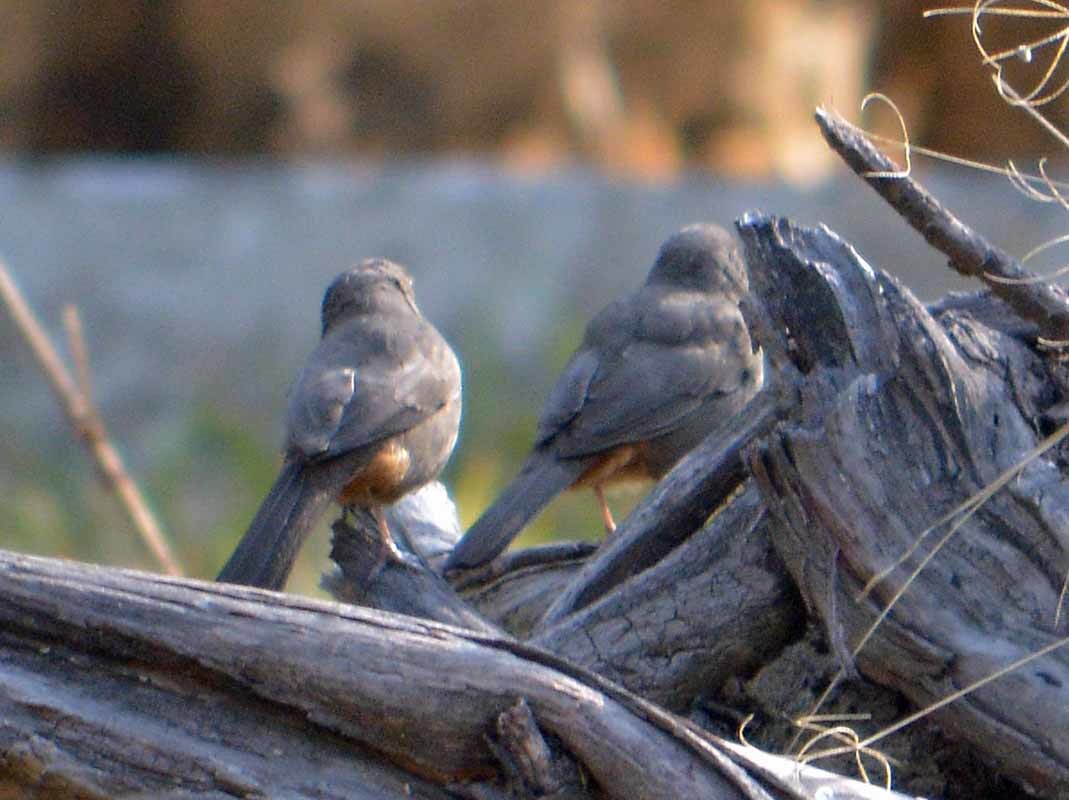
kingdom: Animalia
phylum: Chordata
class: Aves
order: Passeriformes
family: Passerellidae
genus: Melozone
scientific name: Melozone fusca
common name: Canyon towhee
